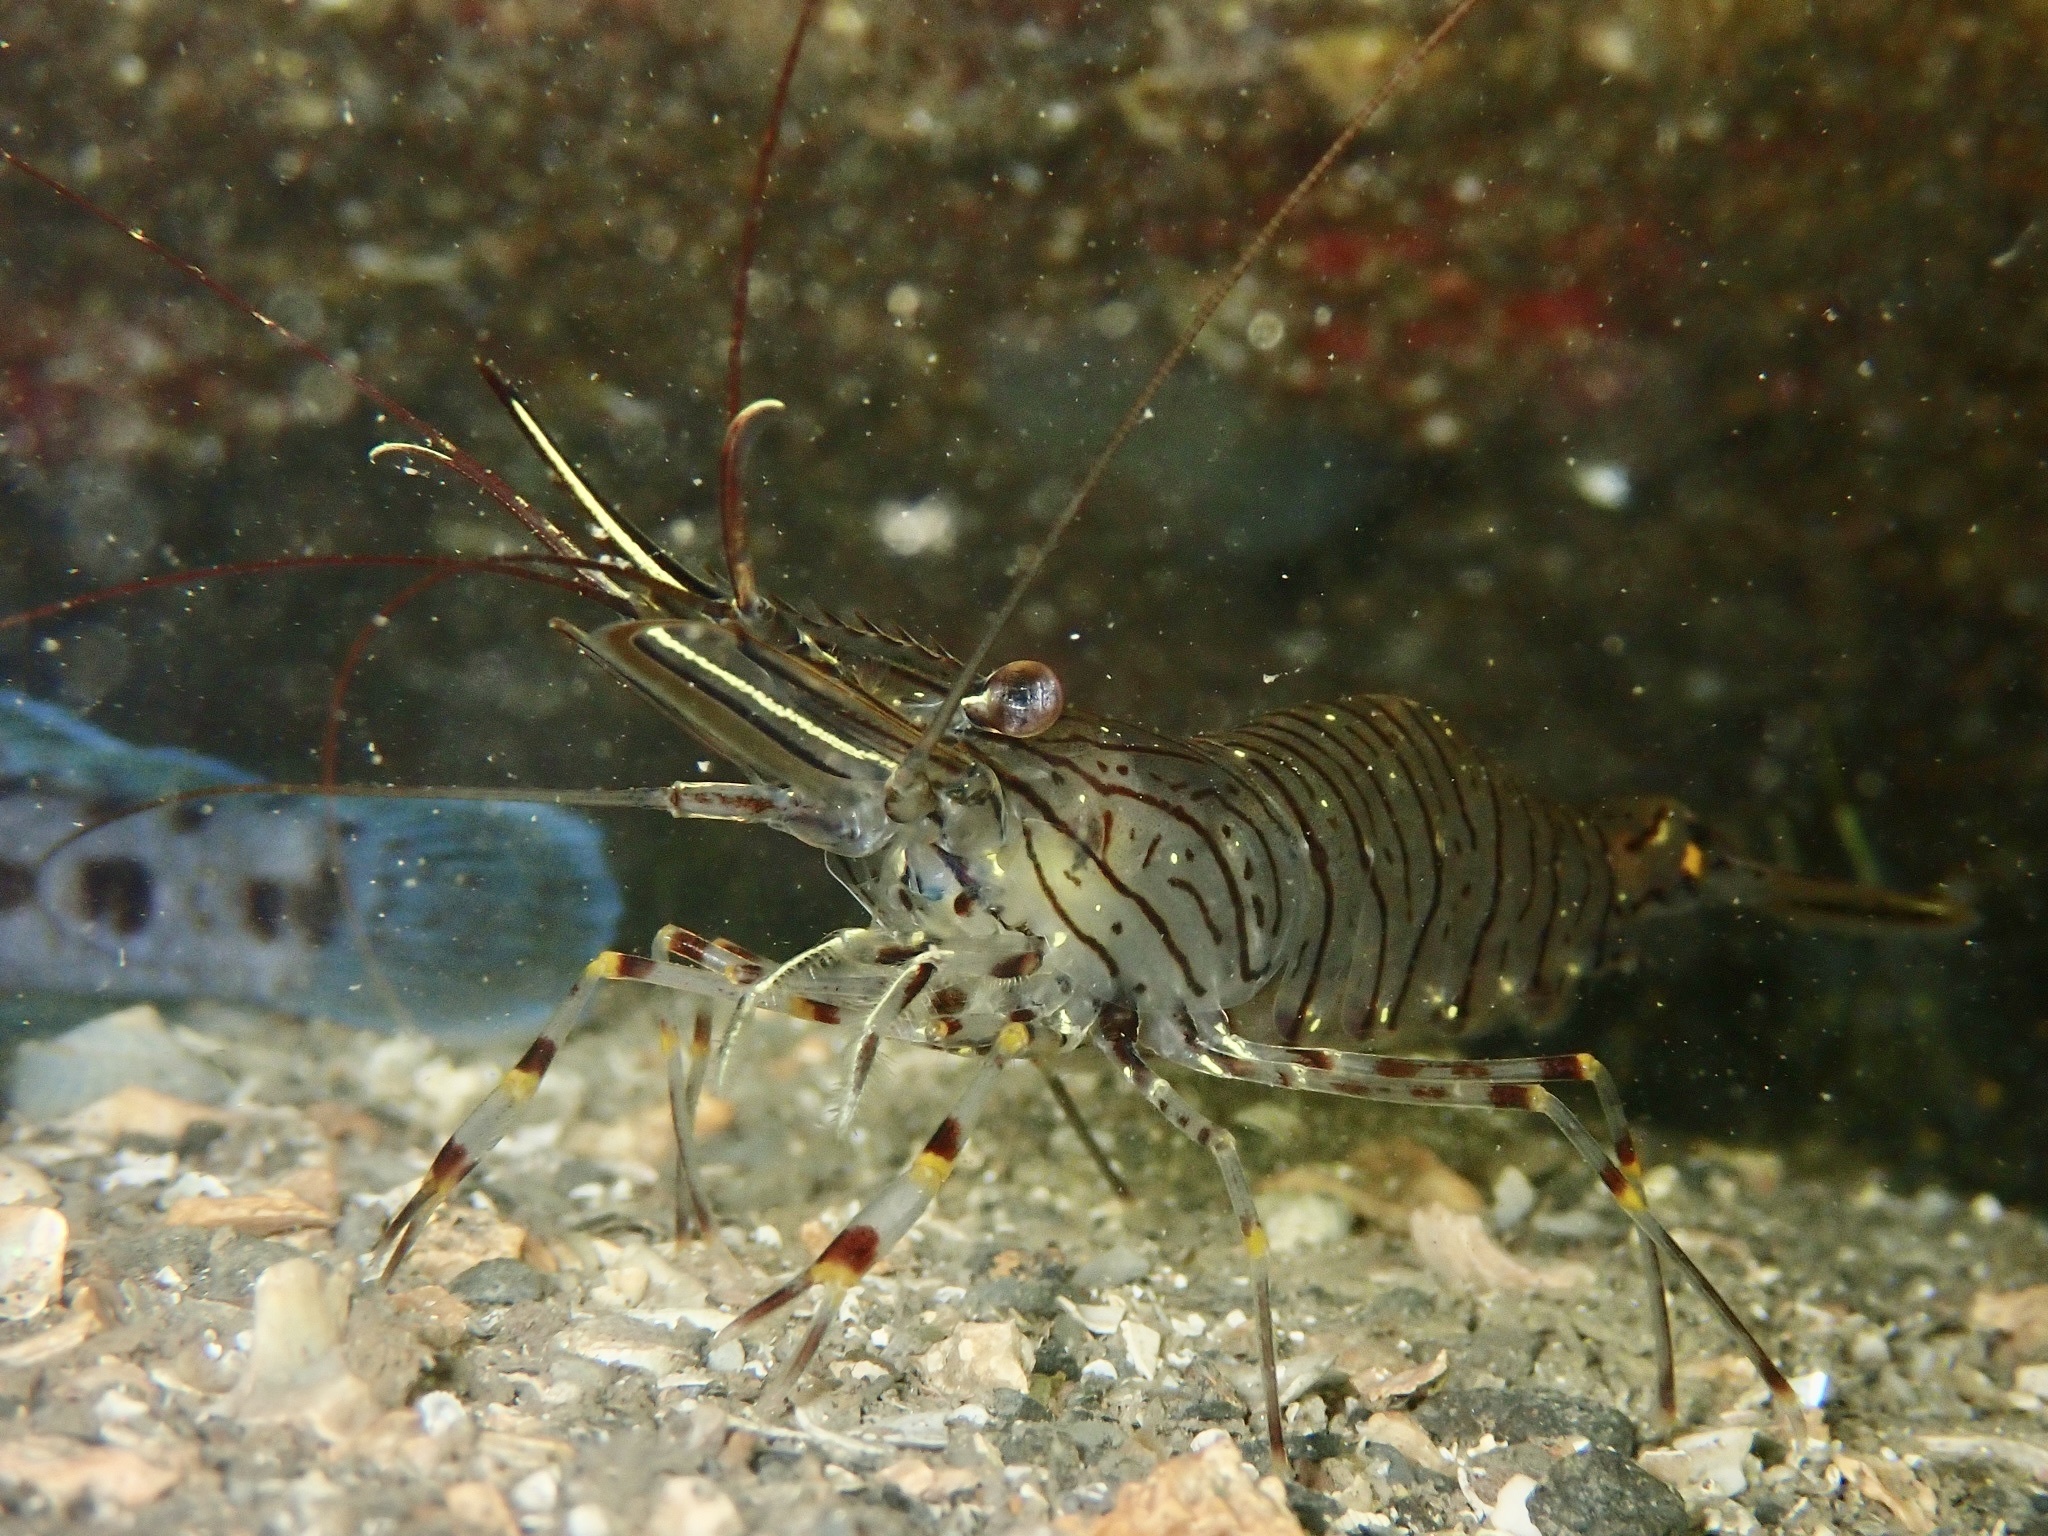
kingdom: Animalia
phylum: Arthropoda
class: Malacostraca
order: Decapoda
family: Palaemonidae
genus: Palaemon
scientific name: Palaemon serratus
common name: Common prawn
